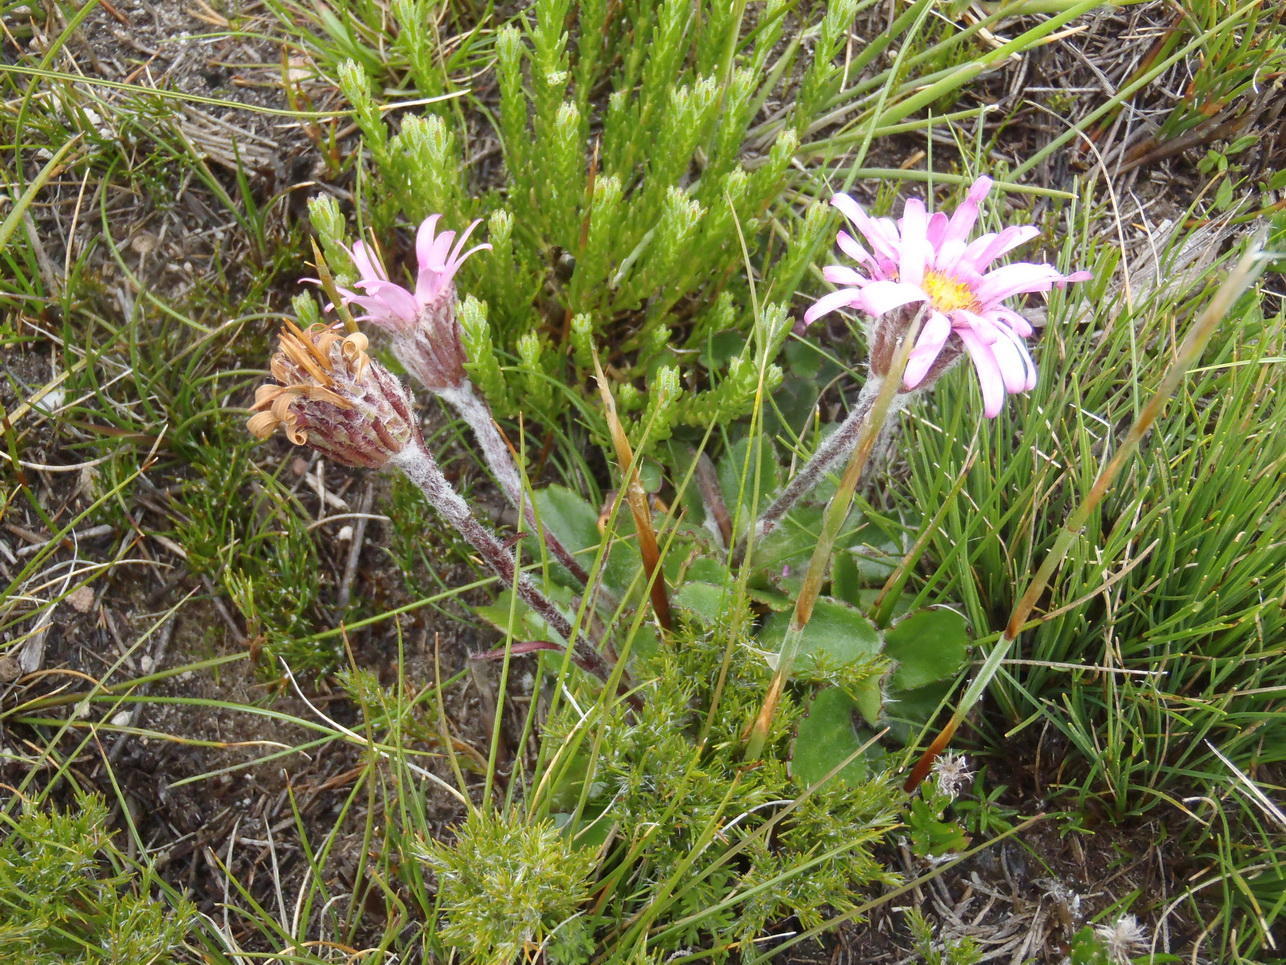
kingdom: Plantae
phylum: Tracheophyta
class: Magnoliopsida
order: Asterales
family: Asteraceae
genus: Zyrphelis
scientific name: Zyrphelis crenata
